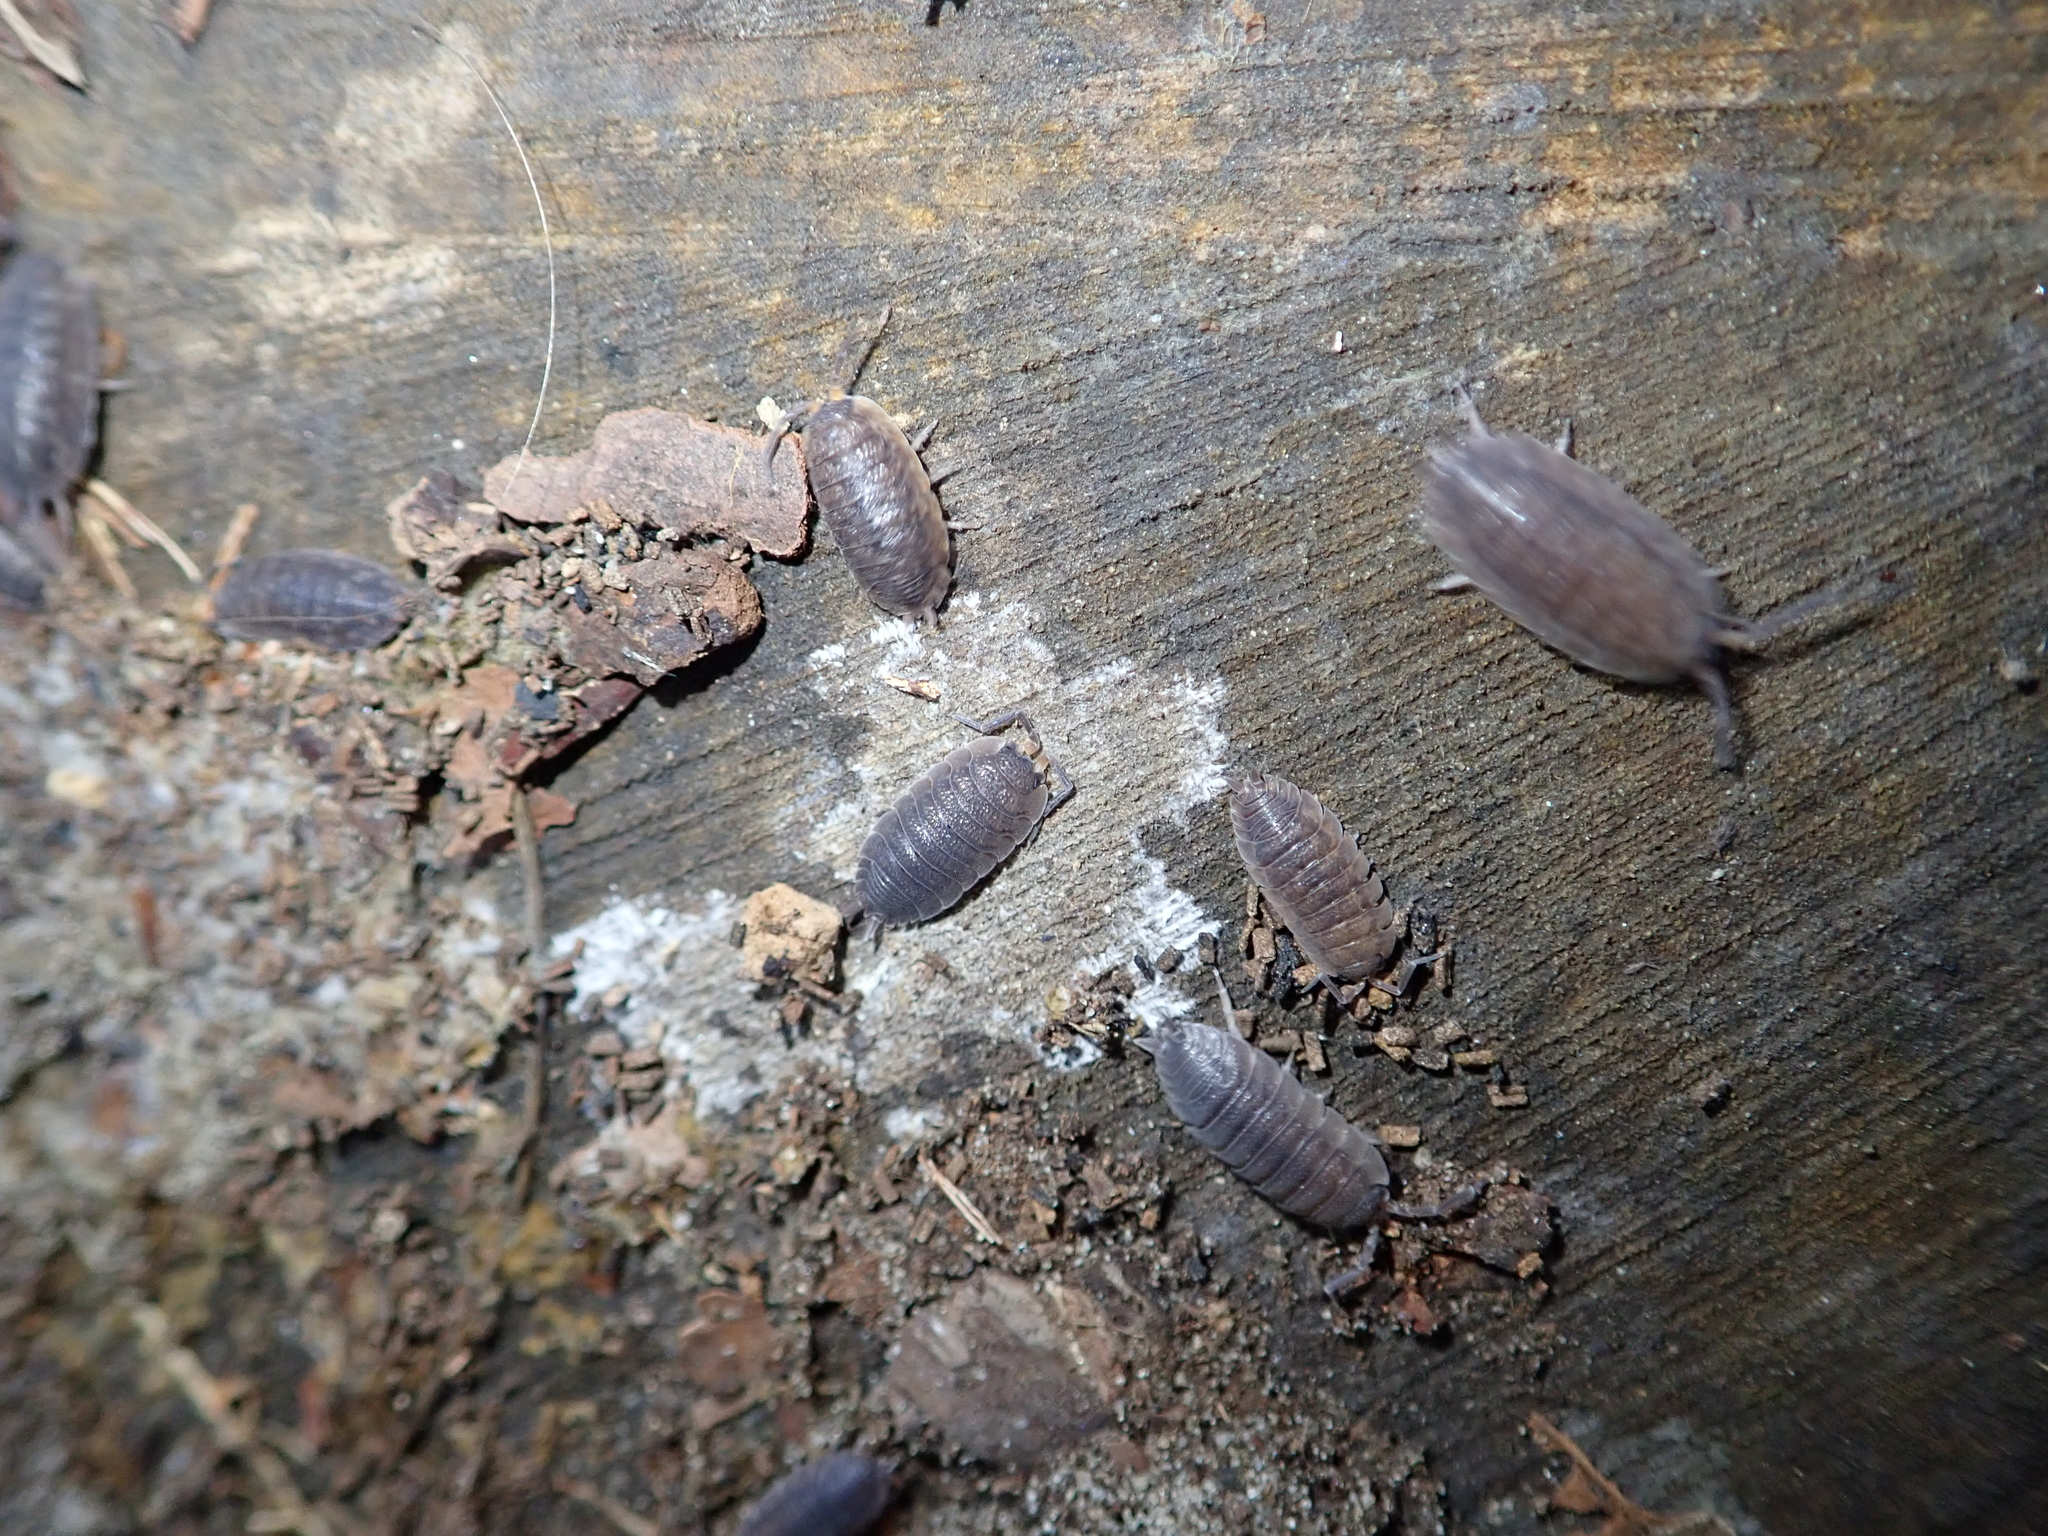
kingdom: Animalia
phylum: Arthropoda
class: Malacostraca
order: Isopoda
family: Porcellionidae
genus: Porcellio
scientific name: Porcellio scaber
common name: Common rough woodlouse
